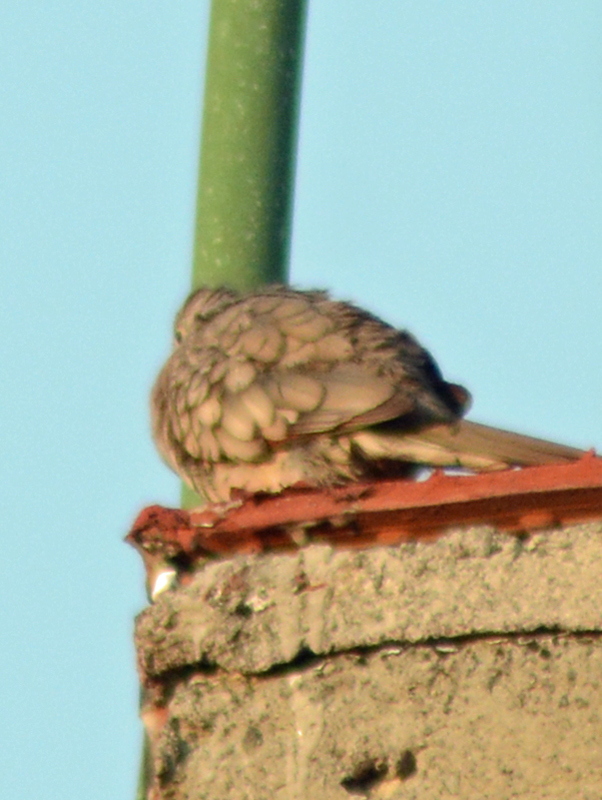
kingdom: Animalia
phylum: Chordata
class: Aves
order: Columbiformes
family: Columbidae
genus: Columbina
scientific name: Columbina inca
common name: Inca dove
